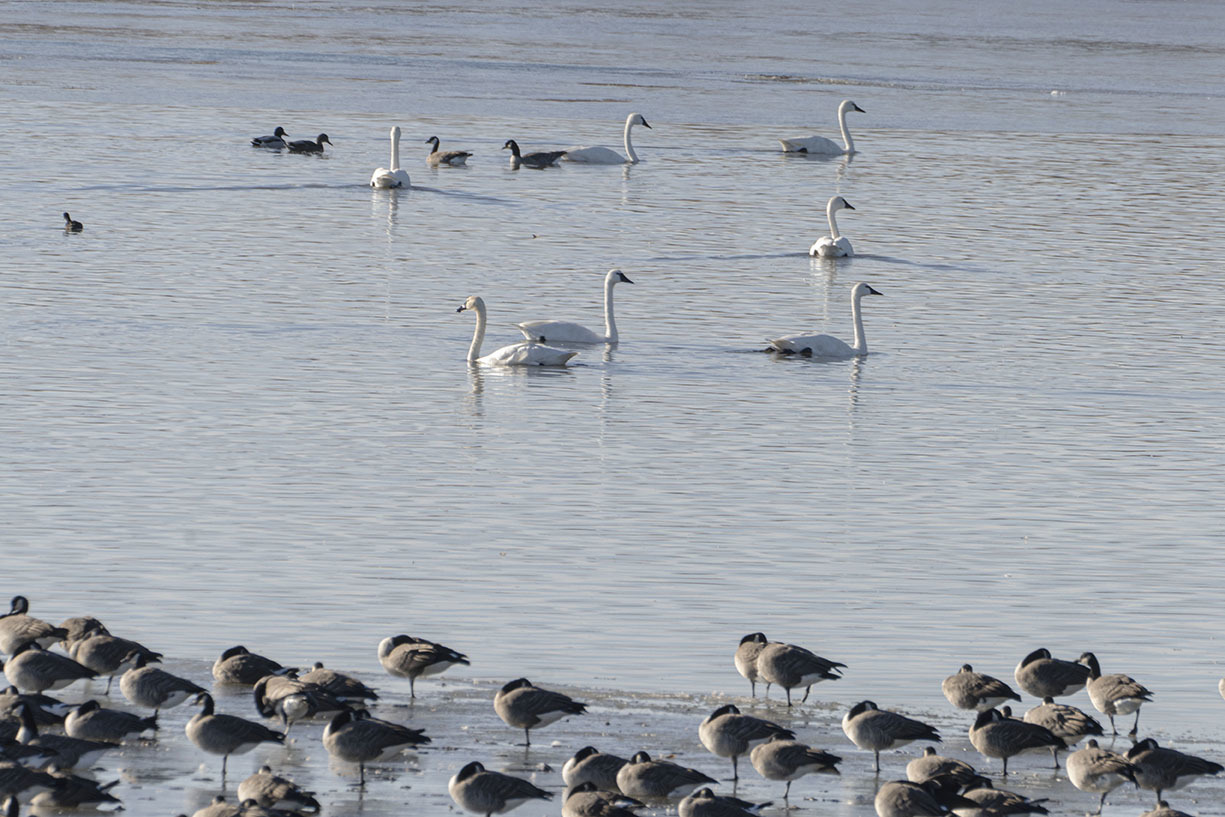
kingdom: Animalia
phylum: Chordata
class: Aves
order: Anseriformes
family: Anatidae
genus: Cygnus
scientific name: Cygnus columbianus
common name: Tundra swan
